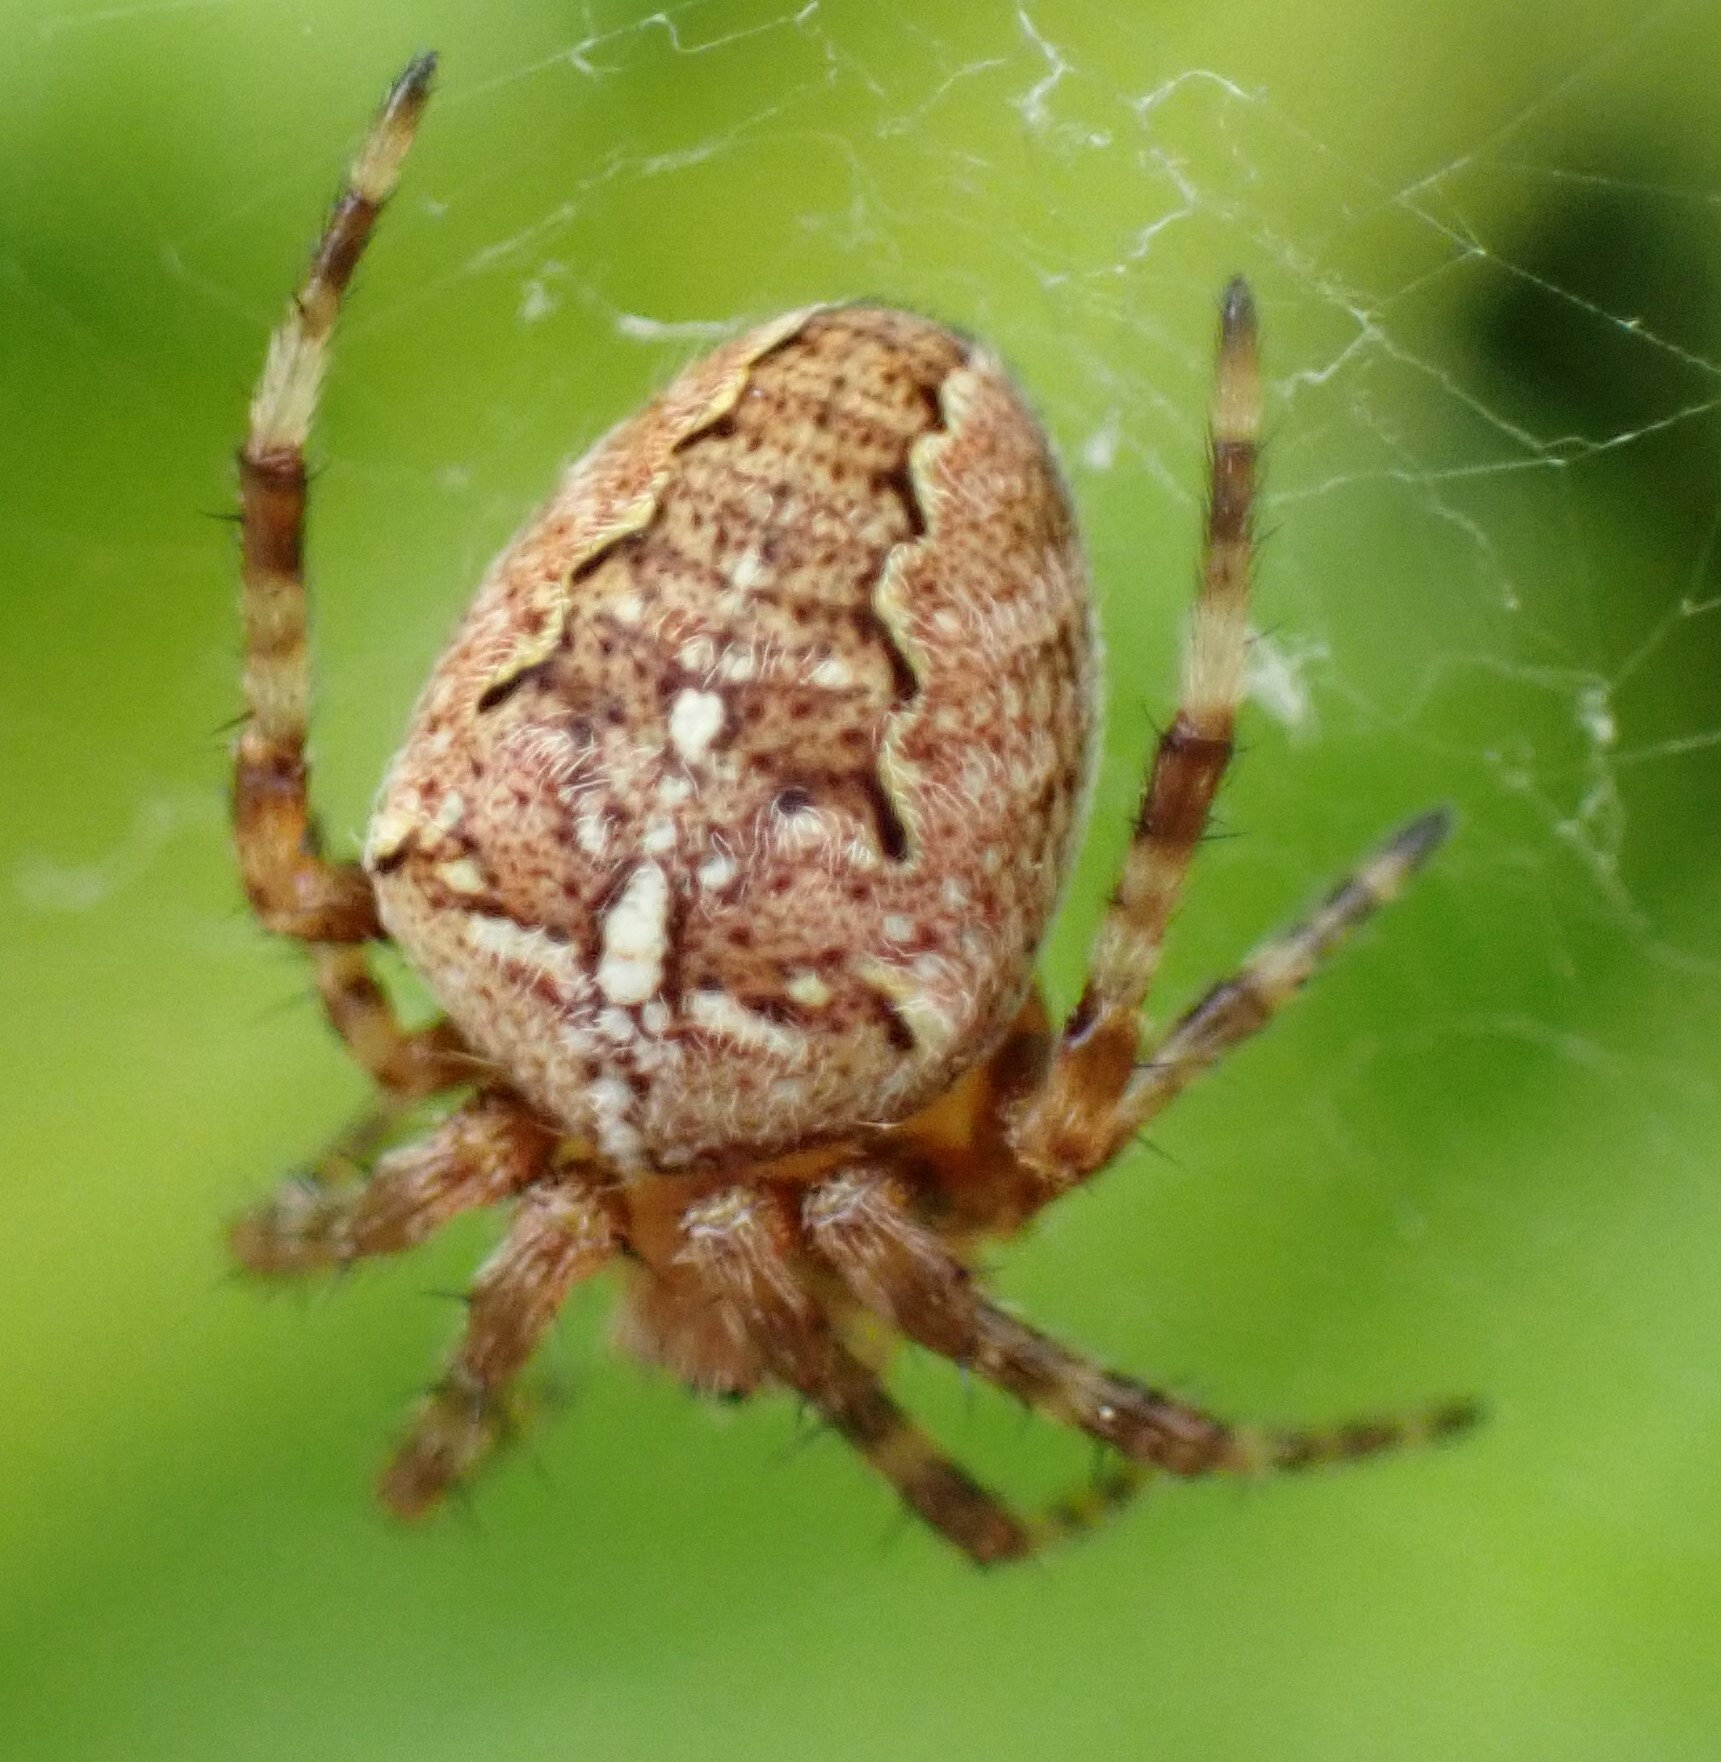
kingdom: Animalia
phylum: Arthropoda
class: Arachnida
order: Araneae
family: Araneidae
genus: Araneus
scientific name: Araneus diadematus
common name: Cross orbweaver
